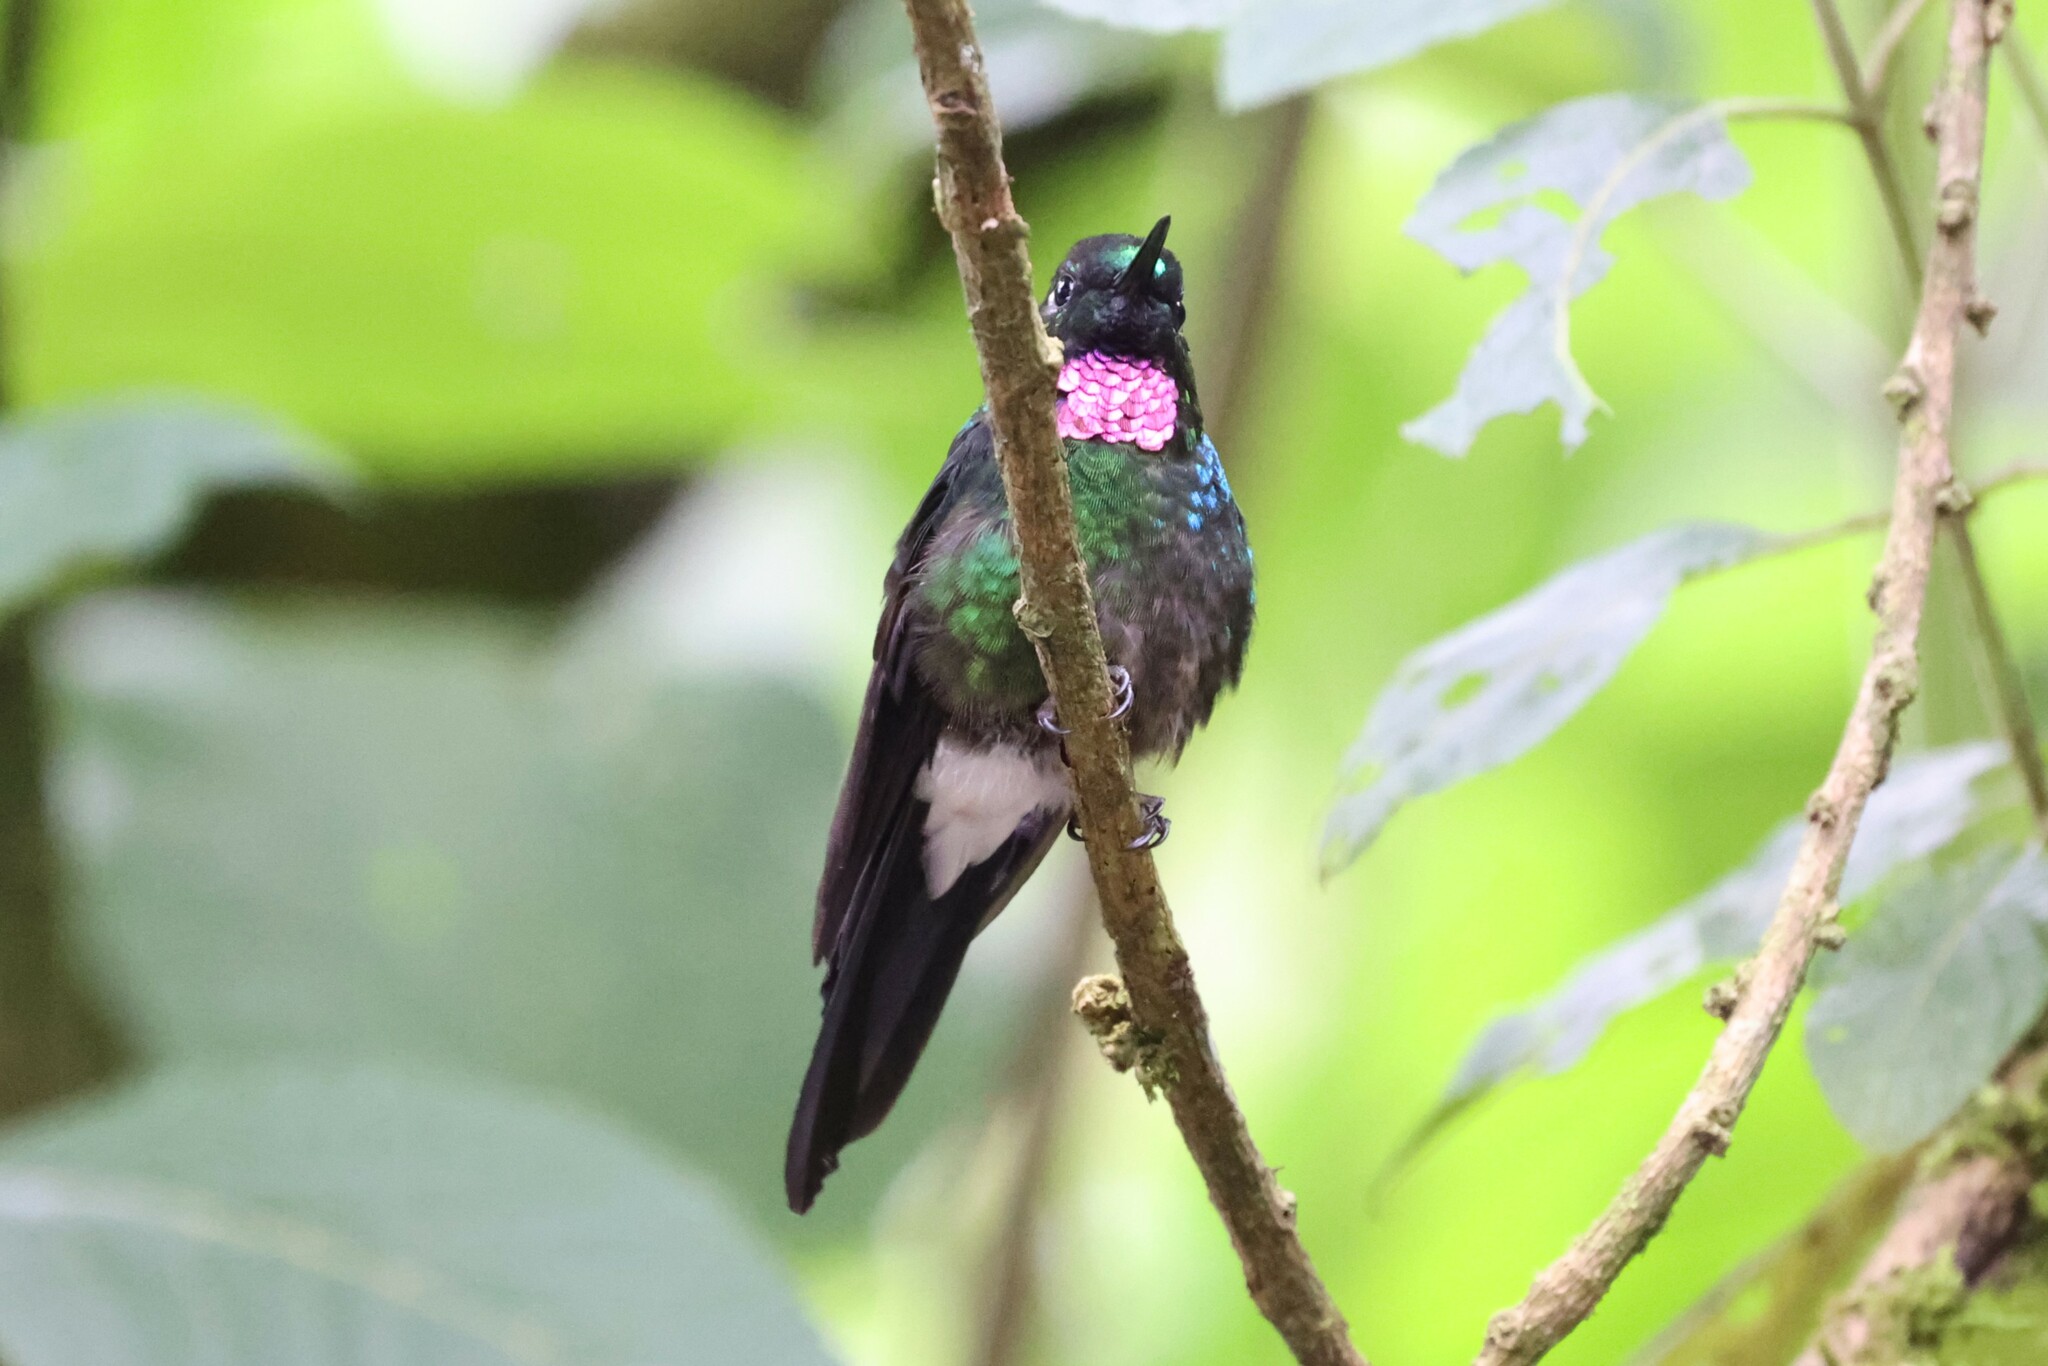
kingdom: Animalia
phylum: Chordata
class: Aves
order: Apodiformes
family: Trochilidae
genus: Heliangelus
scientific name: Heliangelus exortis
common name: Tourmaline sunangel
